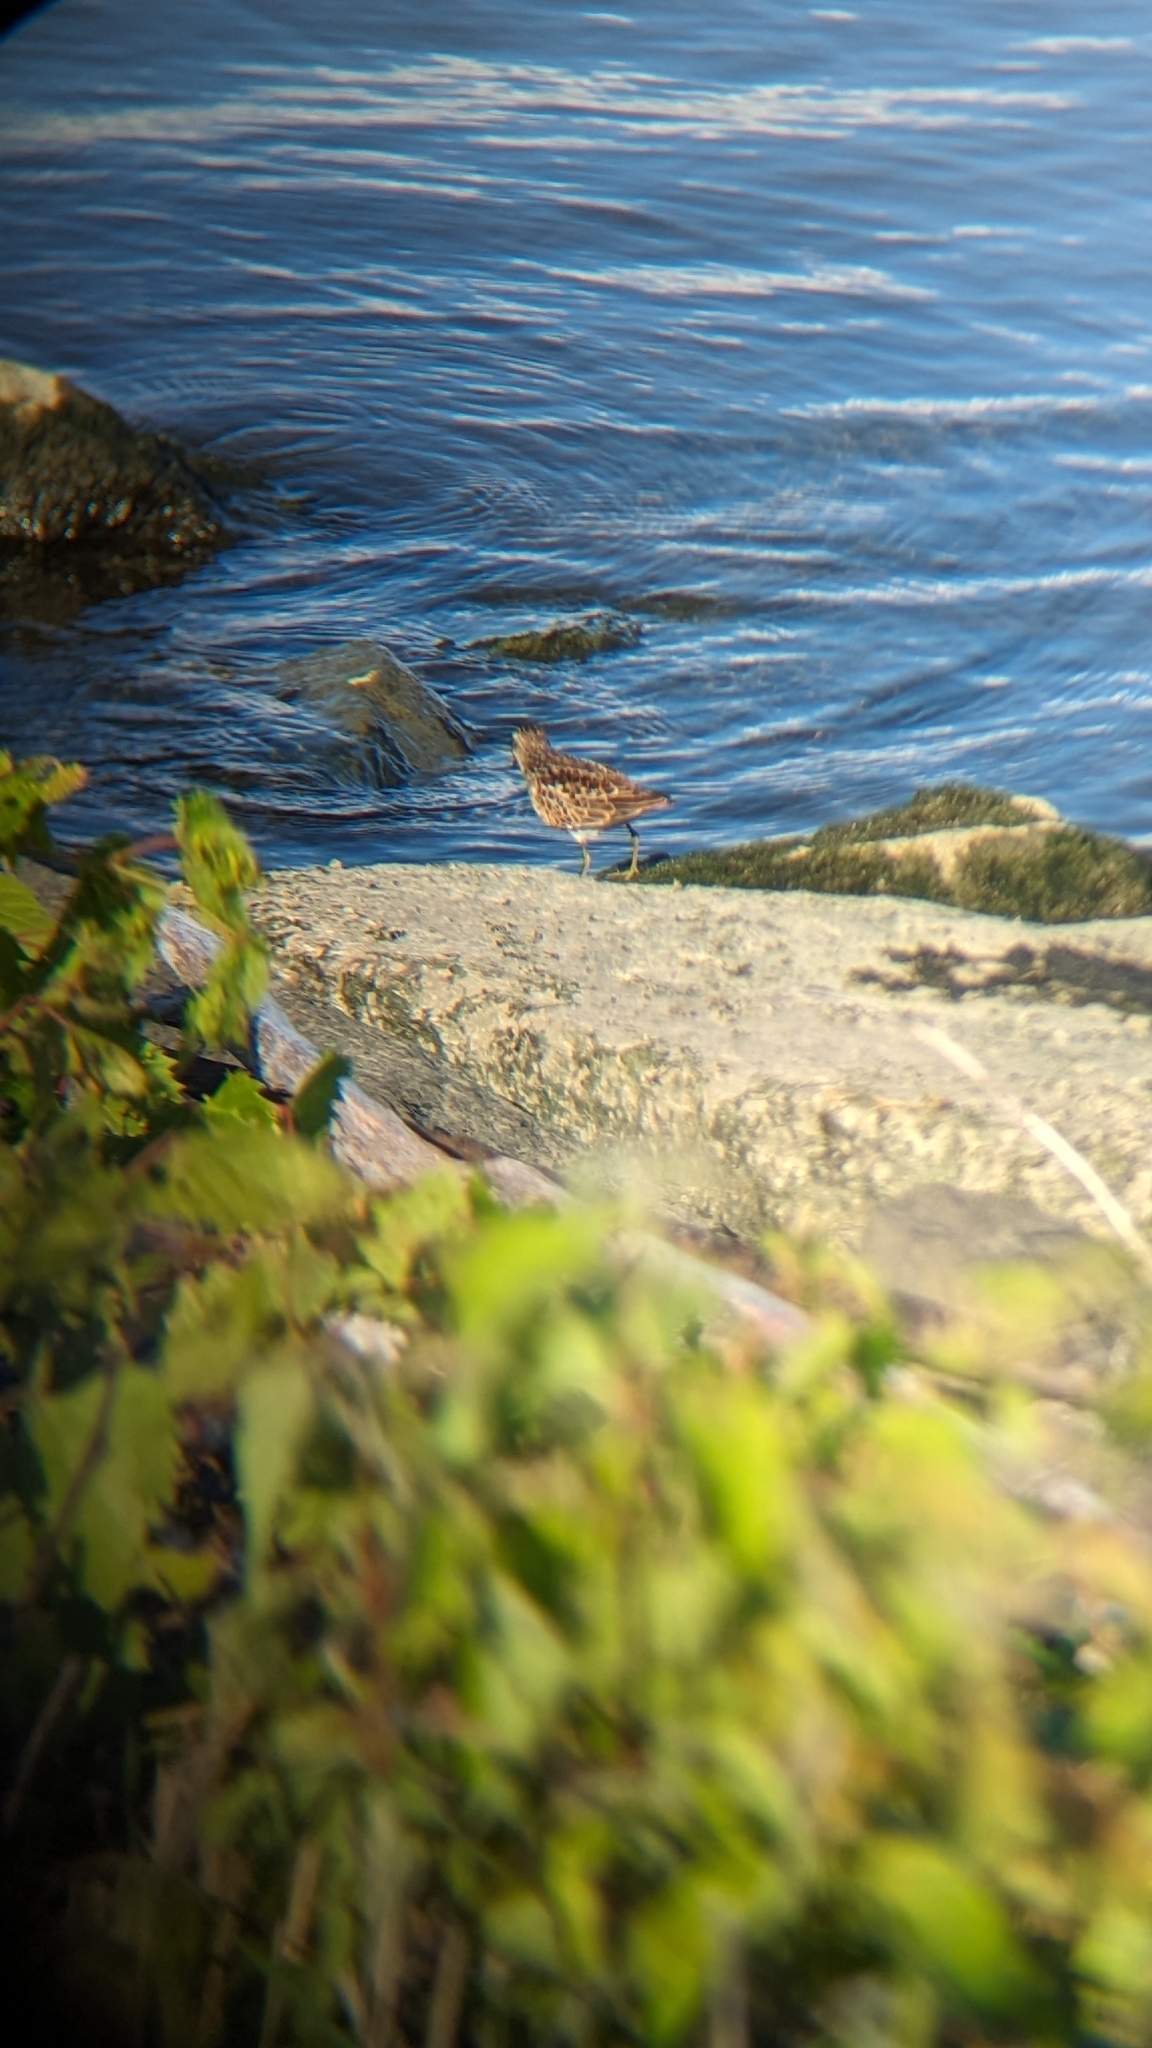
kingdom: Animalia
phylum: Chordata
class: Aves
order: Charadriiformes
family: Scolopacidae
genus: Calidris
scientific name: Calidris minutilla
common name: Least sandpiper
